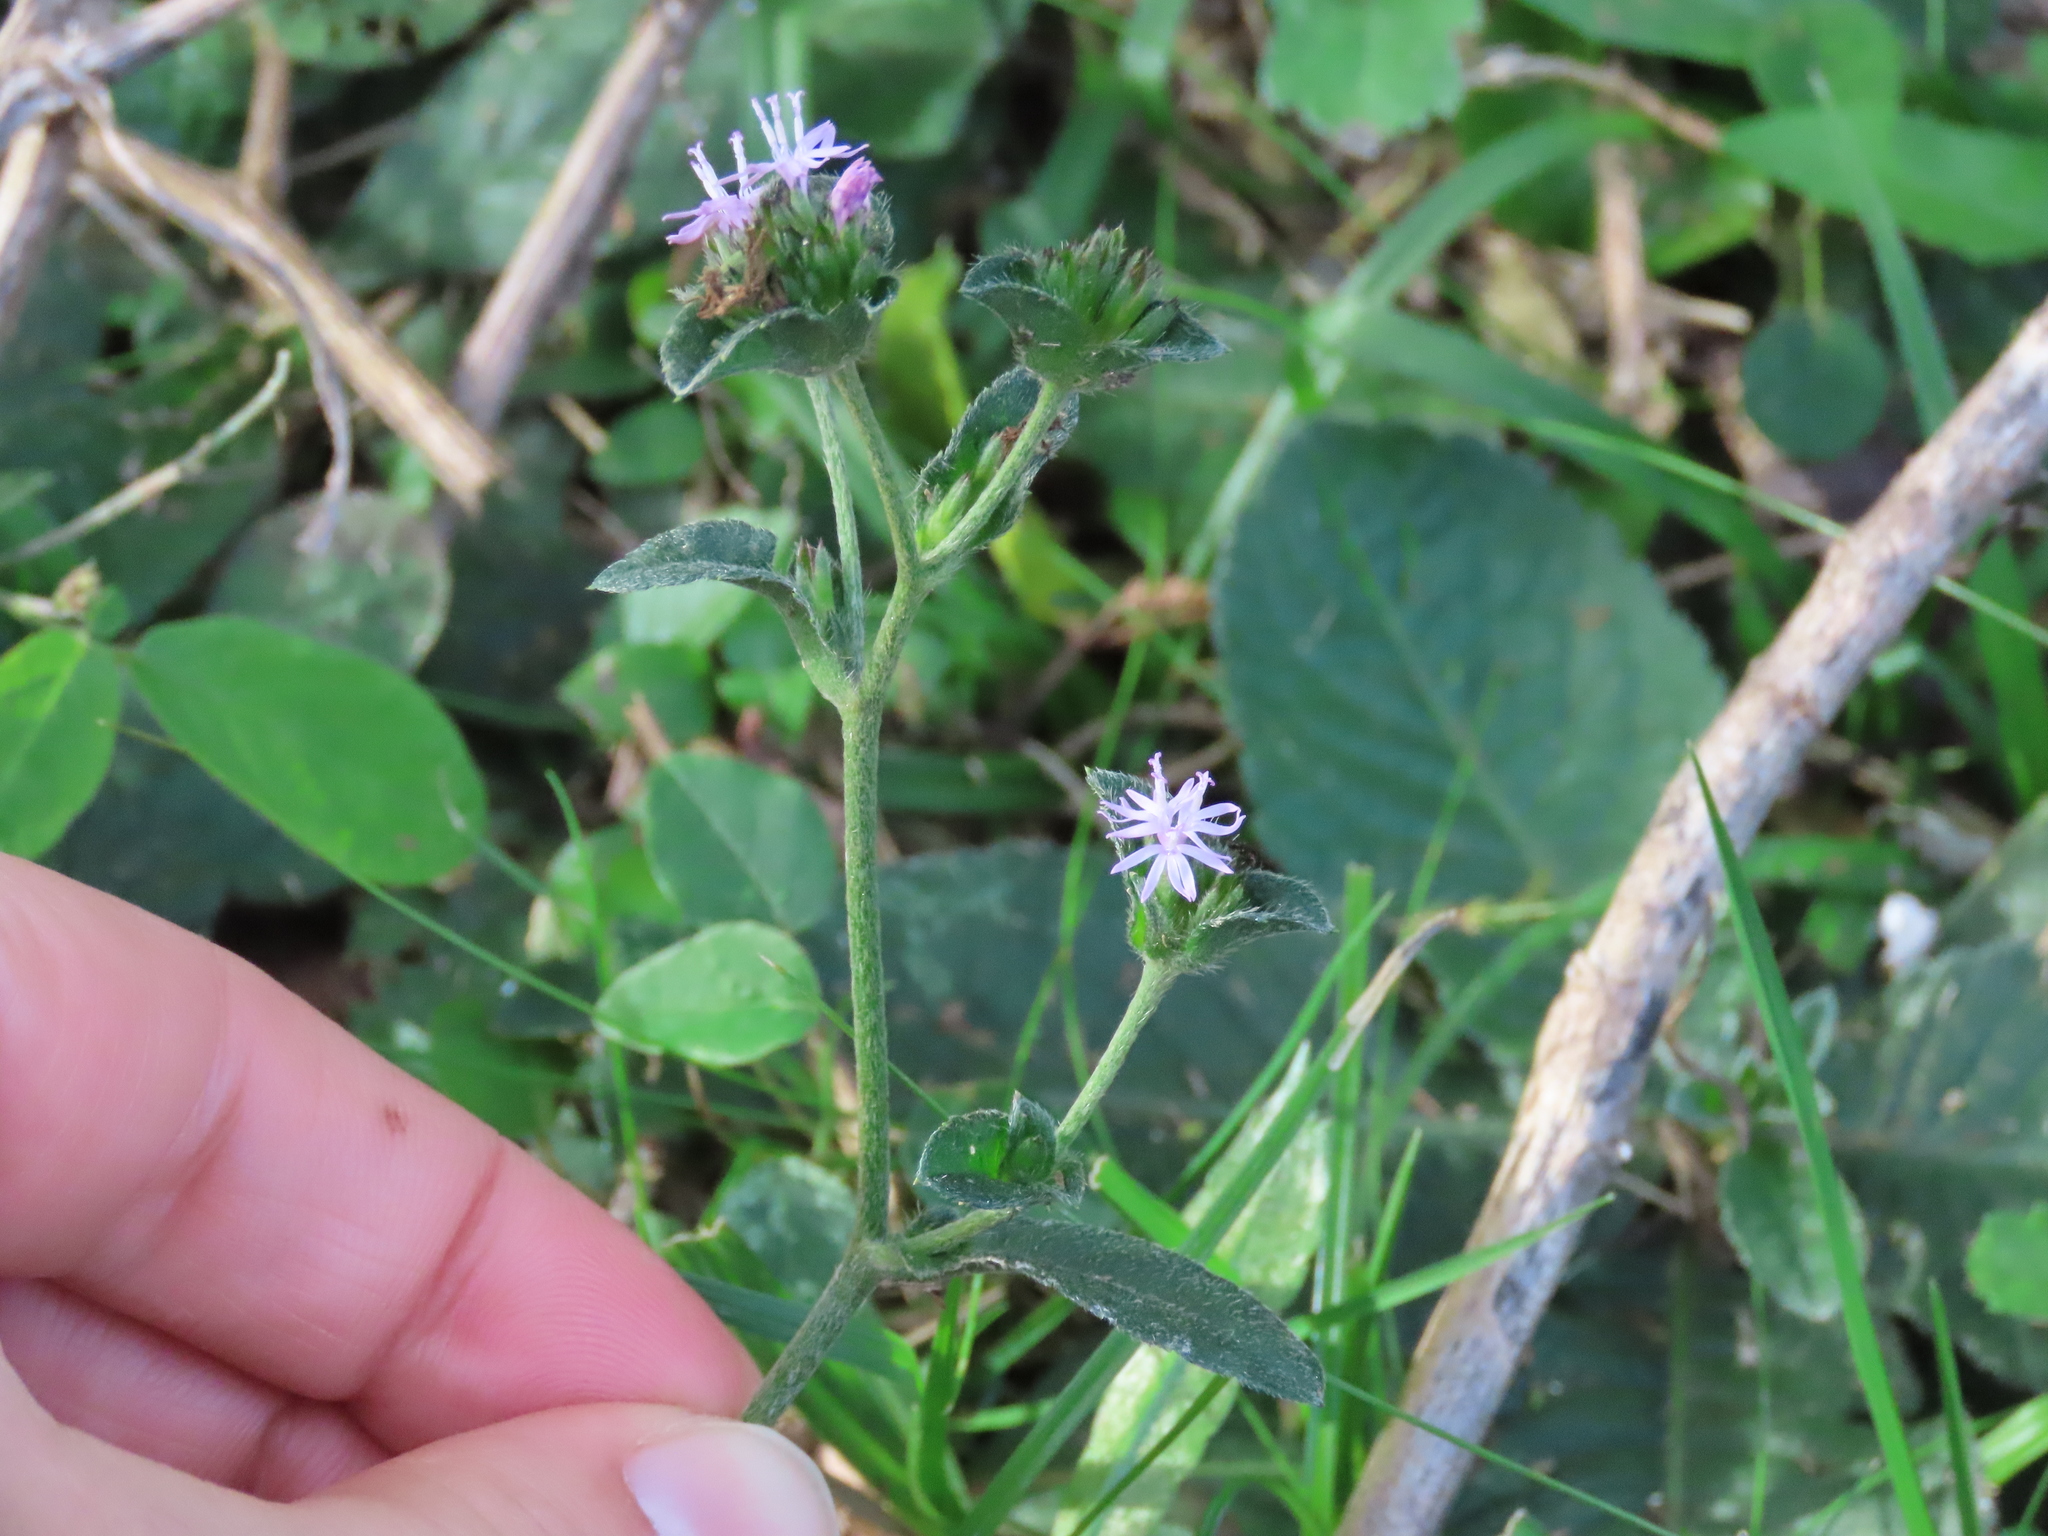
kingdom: Plantae
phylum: Tracheophyta
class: Magnoliopsida
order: Asterales
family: Asteraceae
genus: Elephantopus
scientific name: Elephantopus mollis
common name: Soft elephantsfoot
